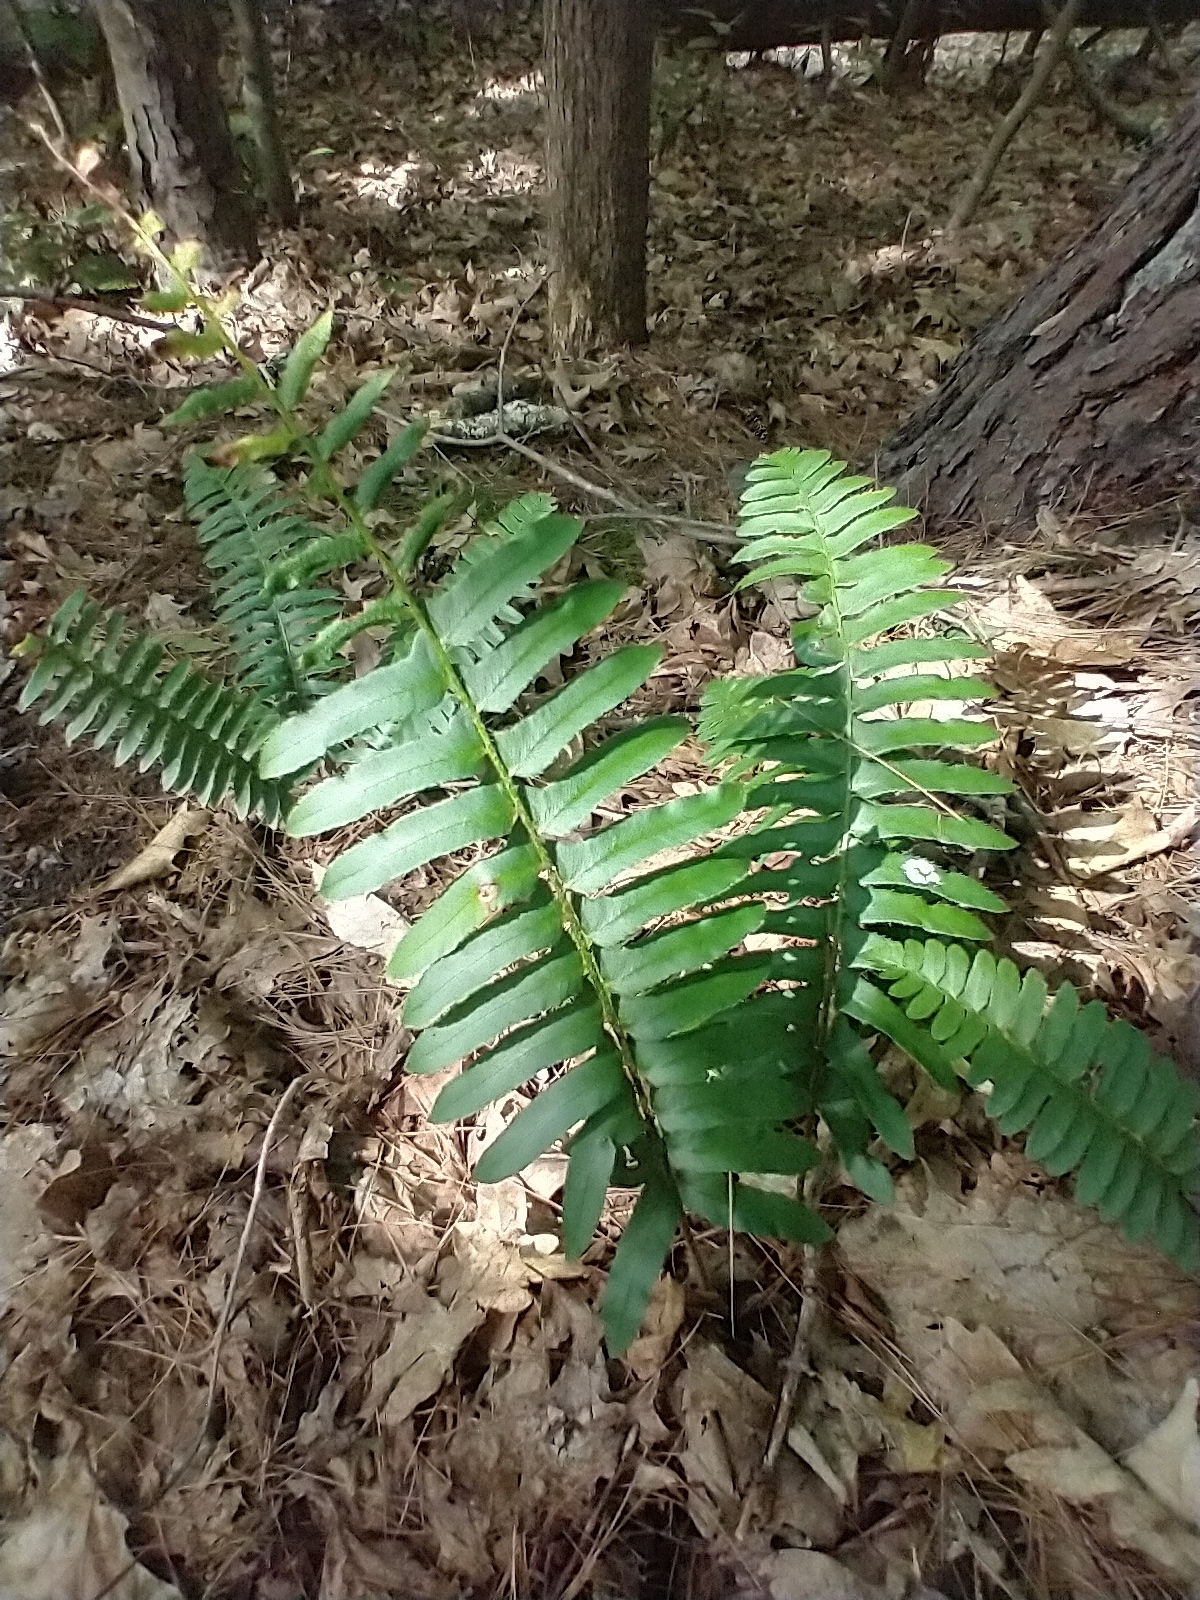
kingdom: Plantae
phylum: Tracheophyta
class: Polypodiopsida
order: Polypodiales
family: Dryopteridaceae
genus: Polystichum
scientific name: Polystichum acrostichoides
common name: Christmas fern
